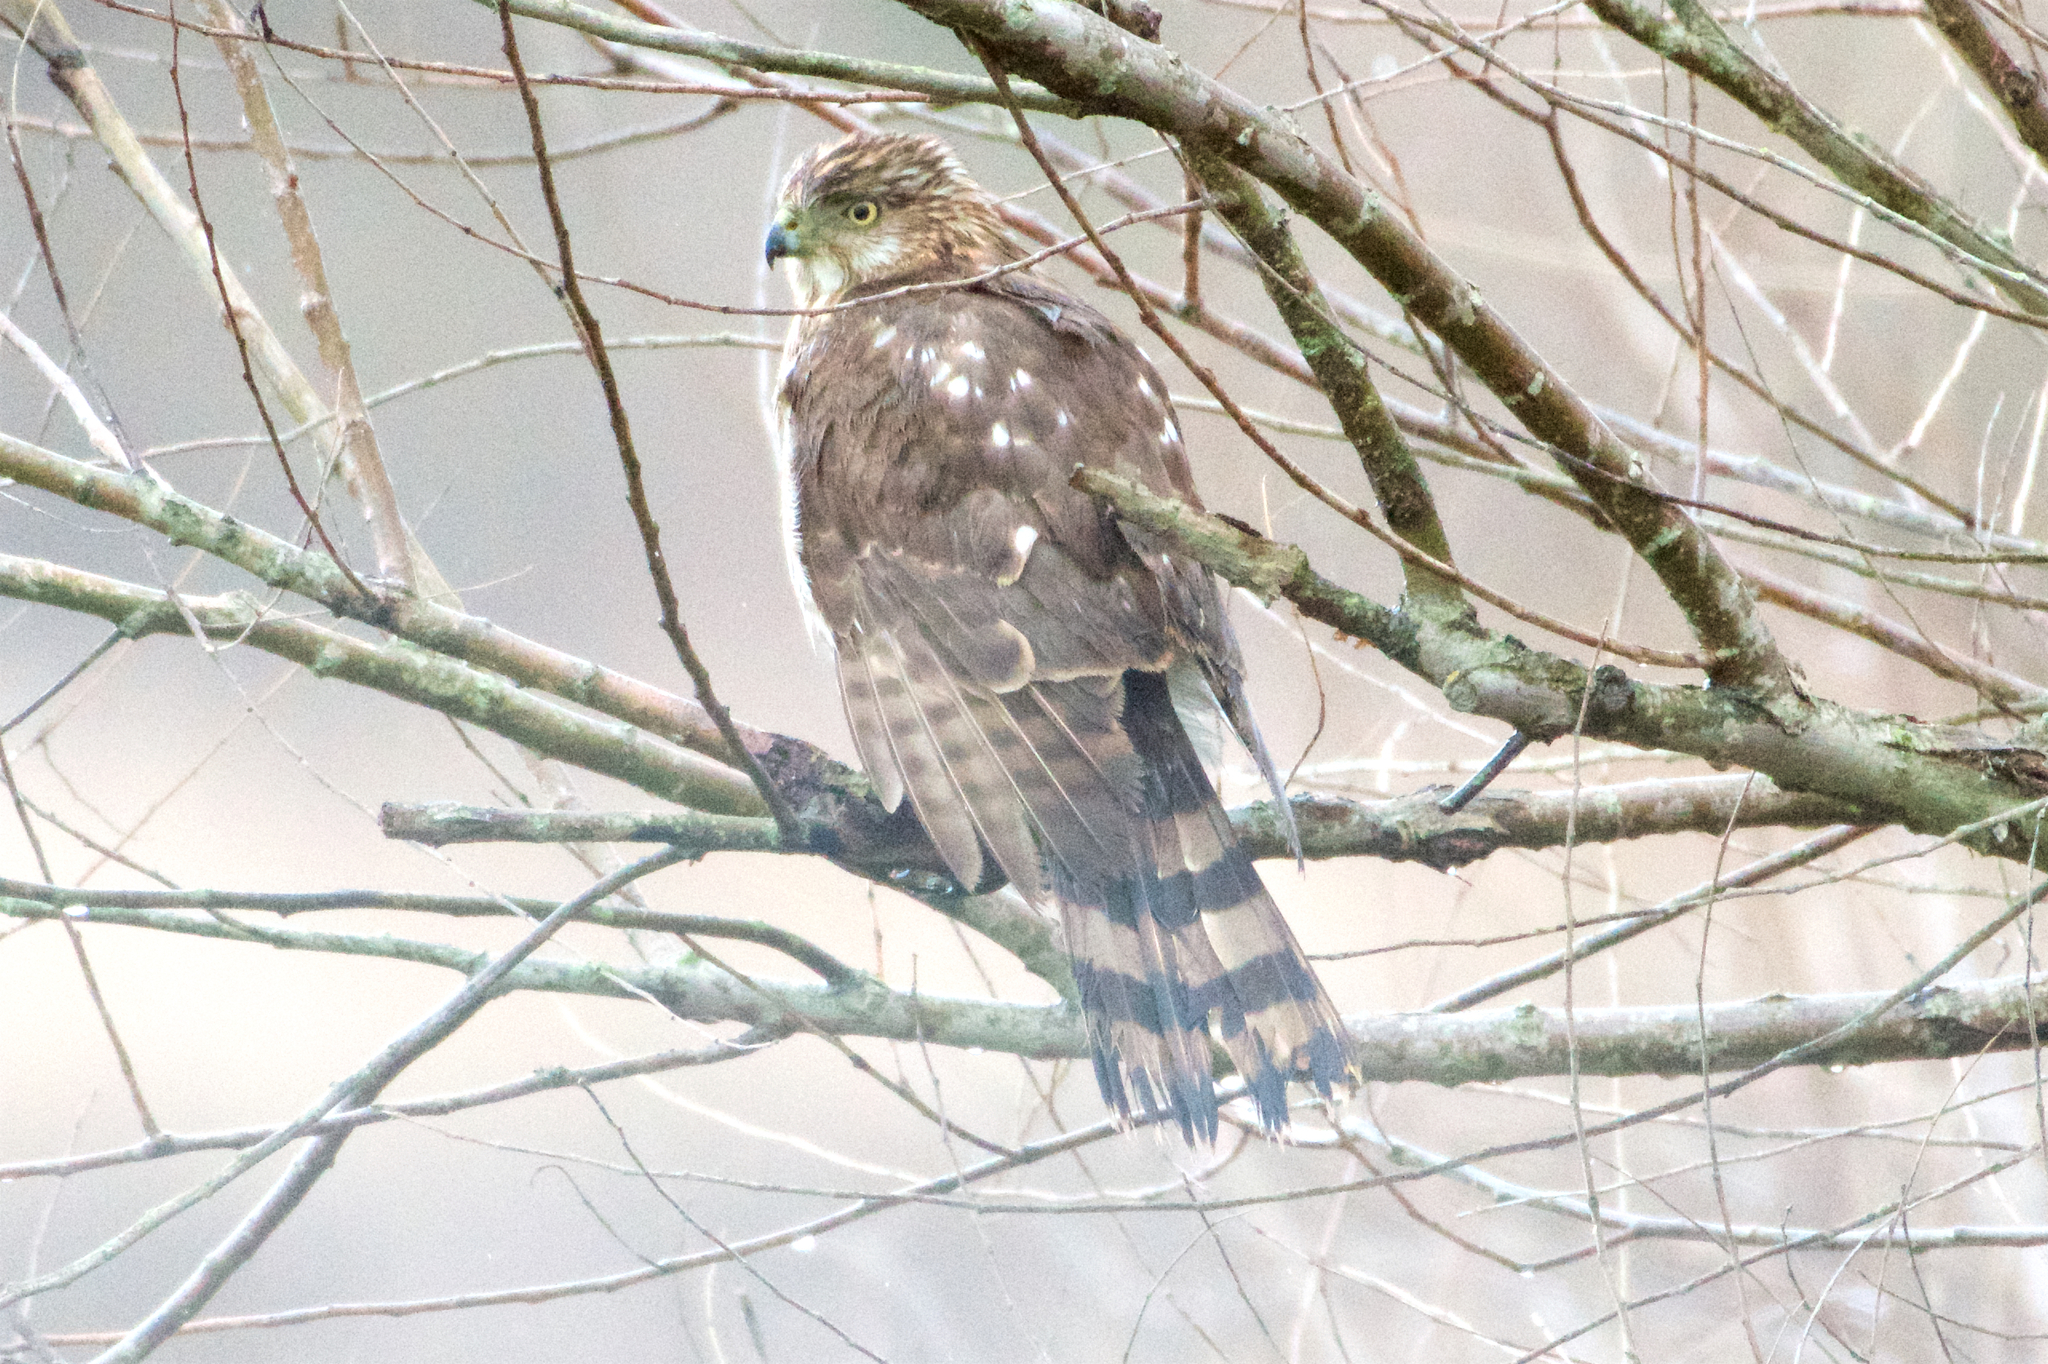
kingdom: Animalia
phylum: Chordata
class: Aves
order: Accipitriformes
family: Accipitridae
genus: Accipiter
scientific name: Accipiter cooperii
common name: Cooper's hawk
